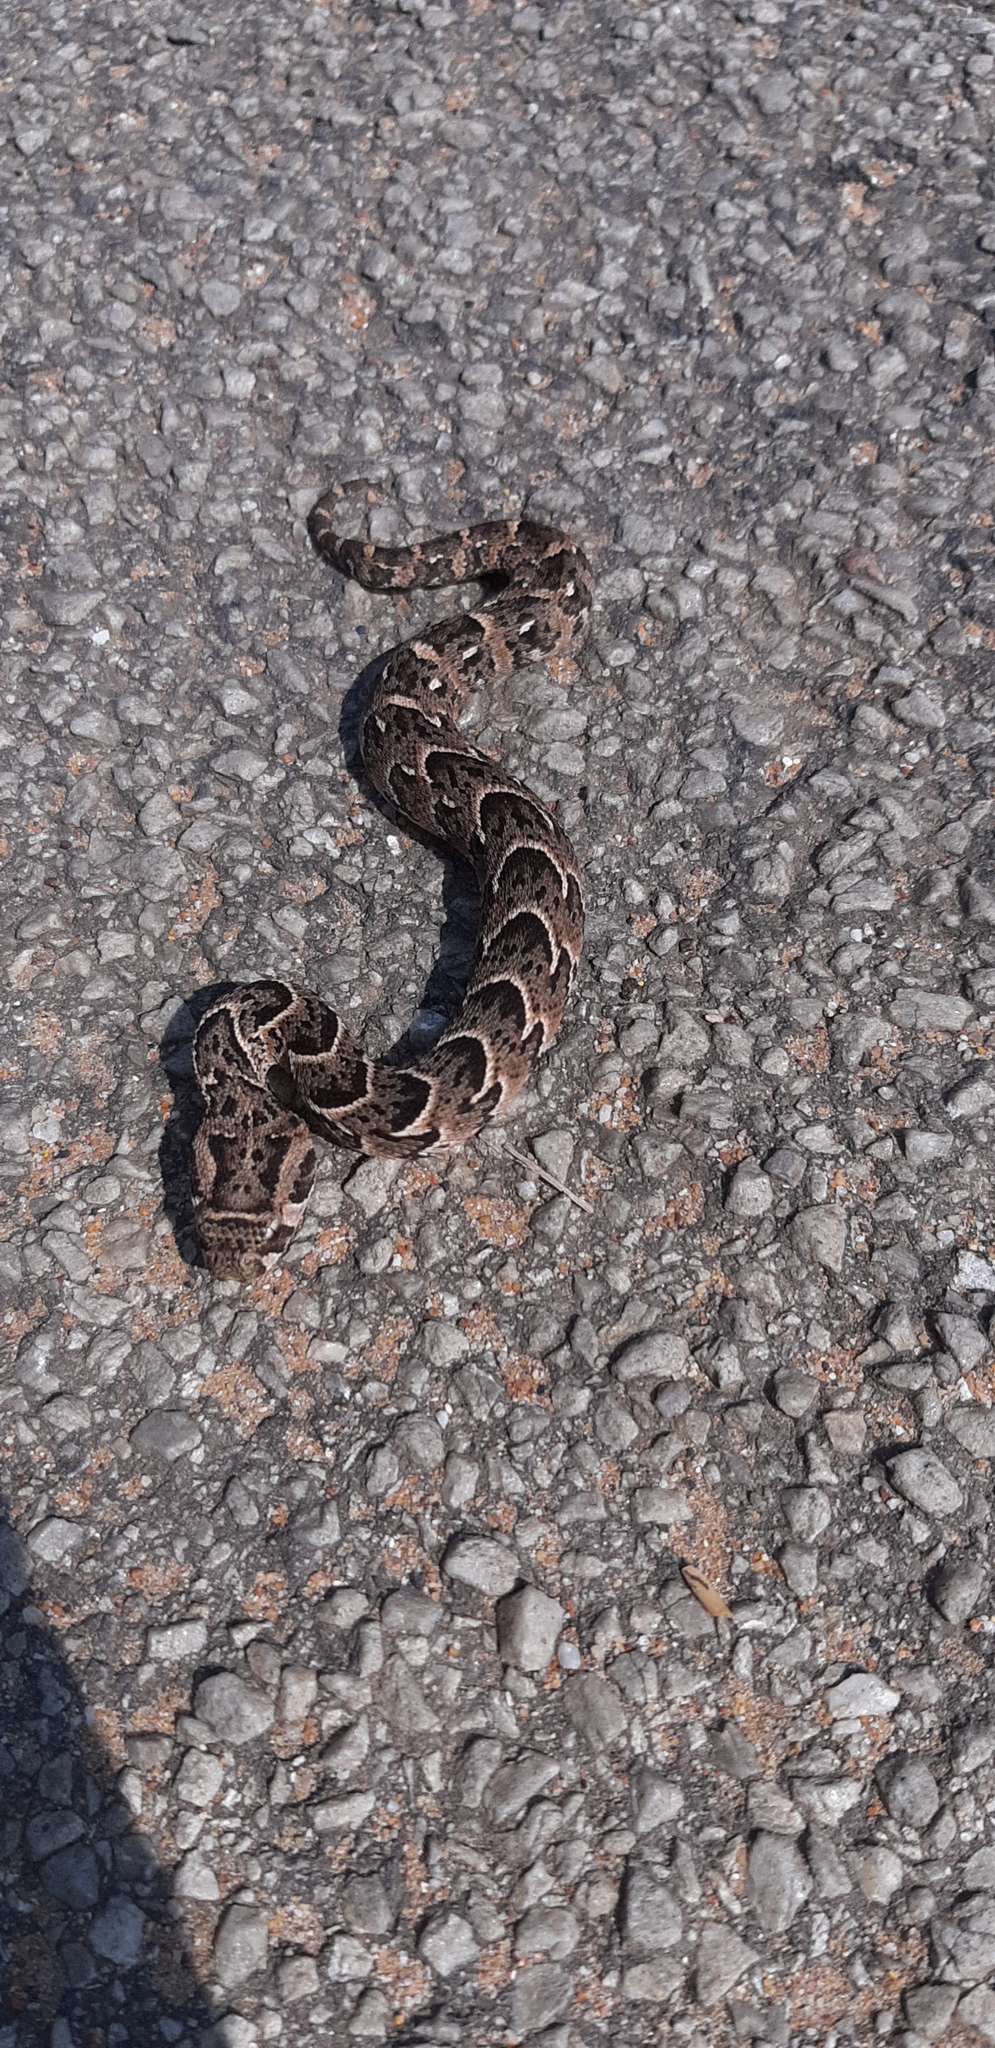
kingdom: Animalia
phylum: Chordata
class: Squamata
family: Viperidae
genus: Bitis
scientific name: Bitis arietans
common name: Puff adder
